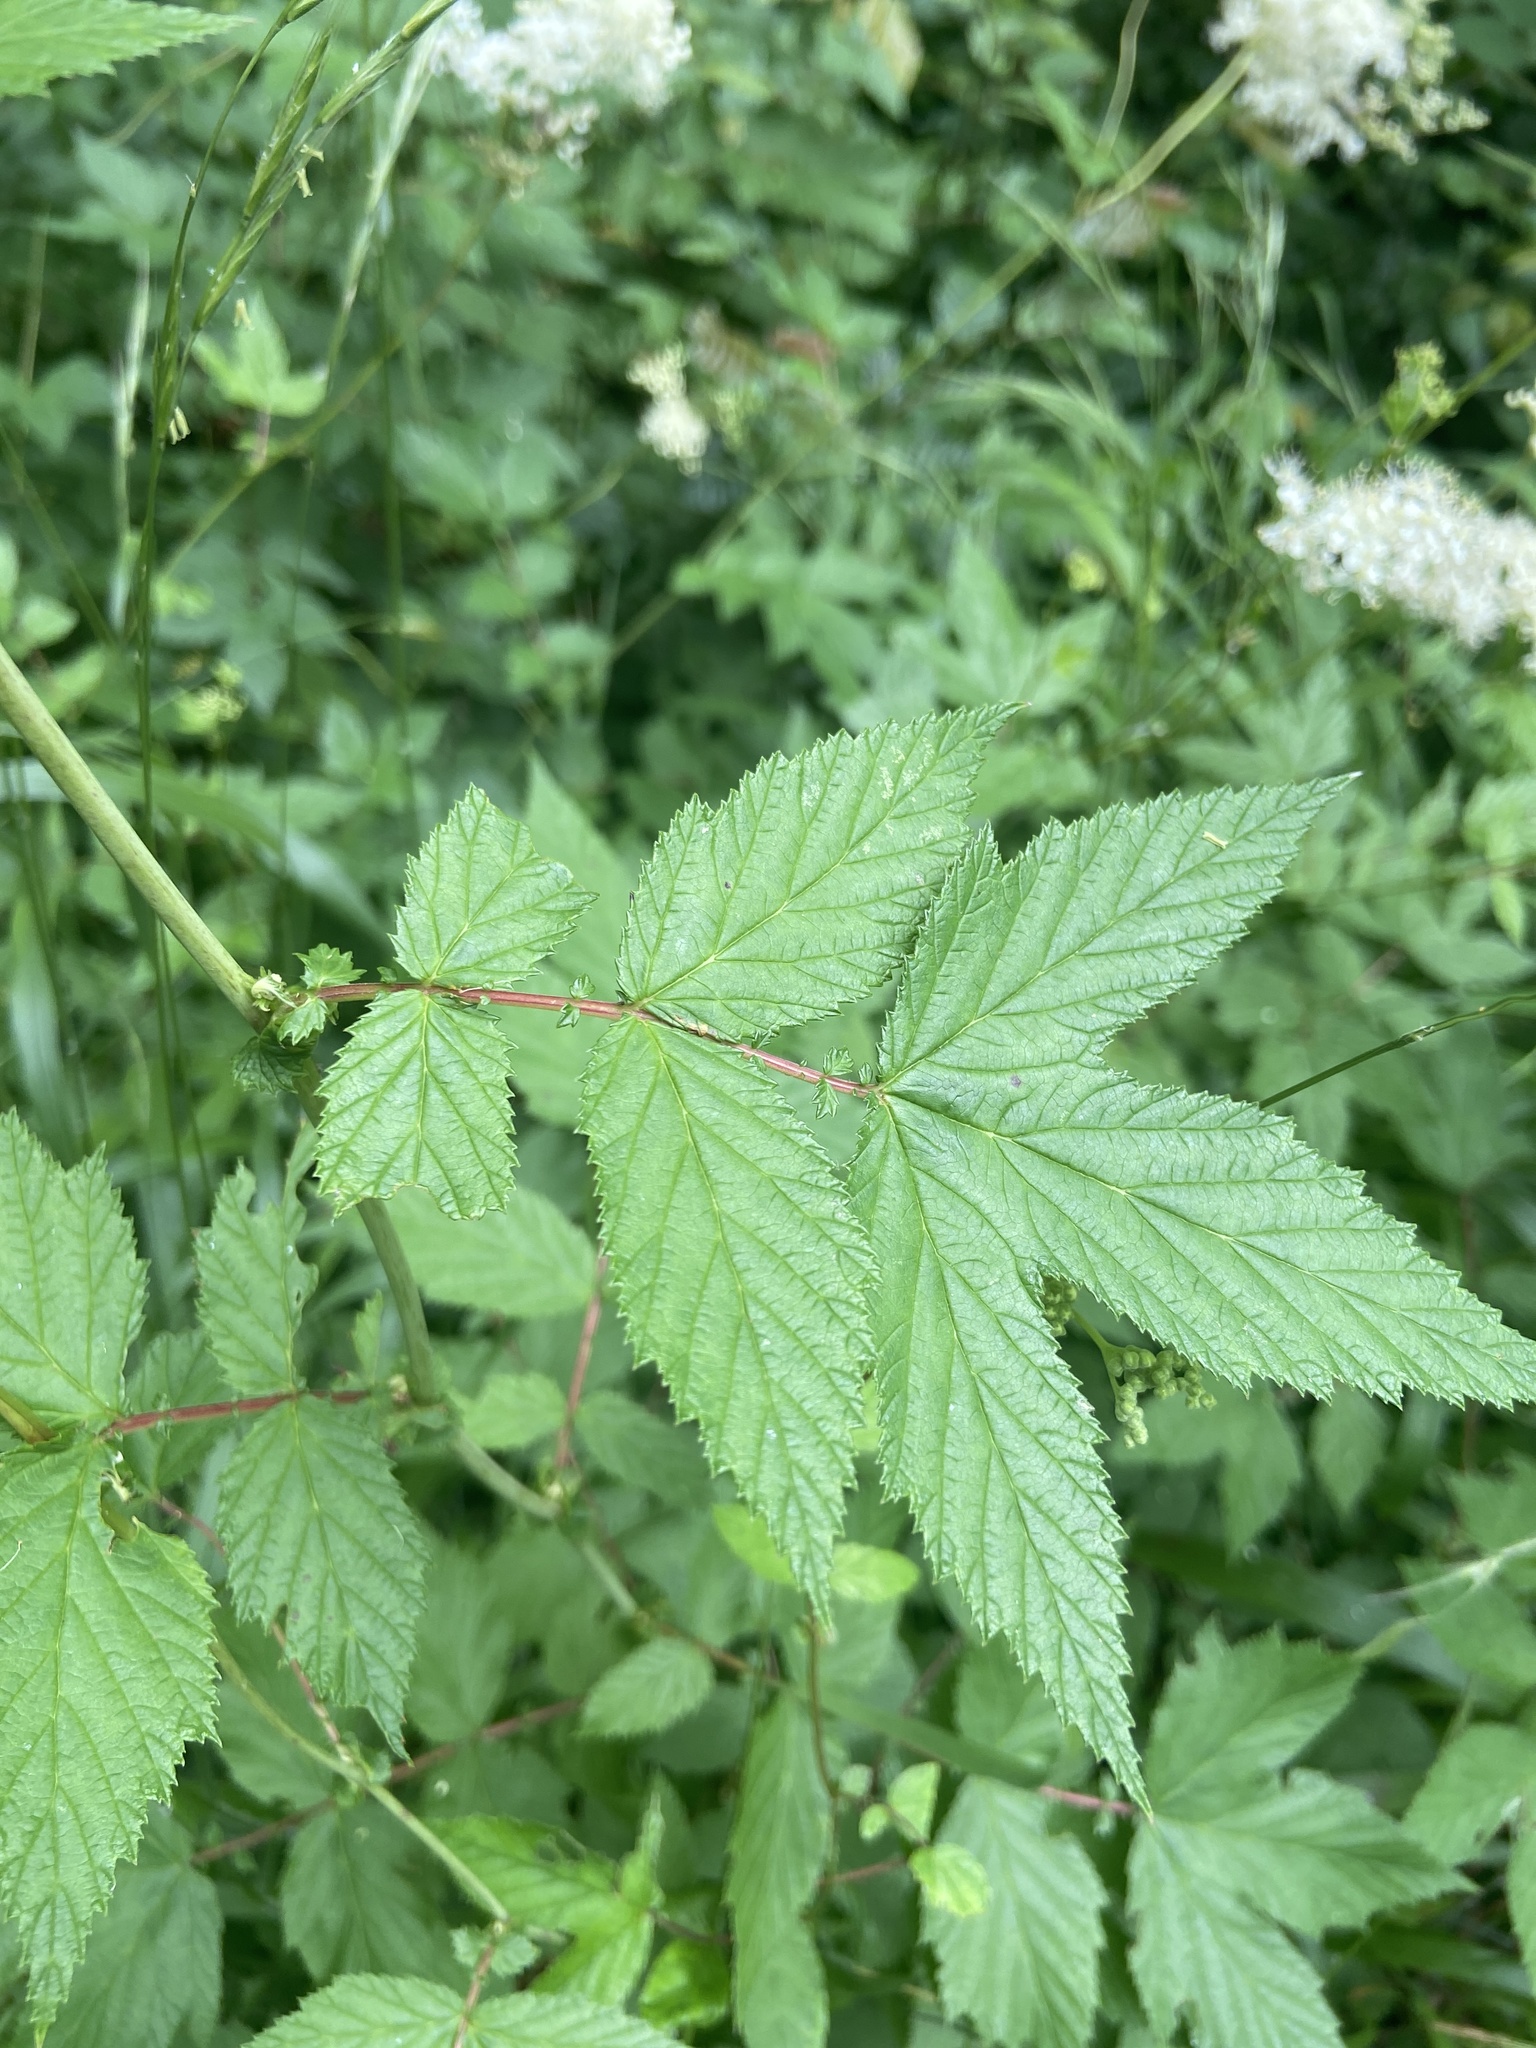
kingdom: Plantae
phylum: Tracheophyta
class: Magnoliopsida
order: Rosales
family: Rosaceae
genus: Filipendula
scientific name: Filipendula ulmaria
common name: Meadowsweet
